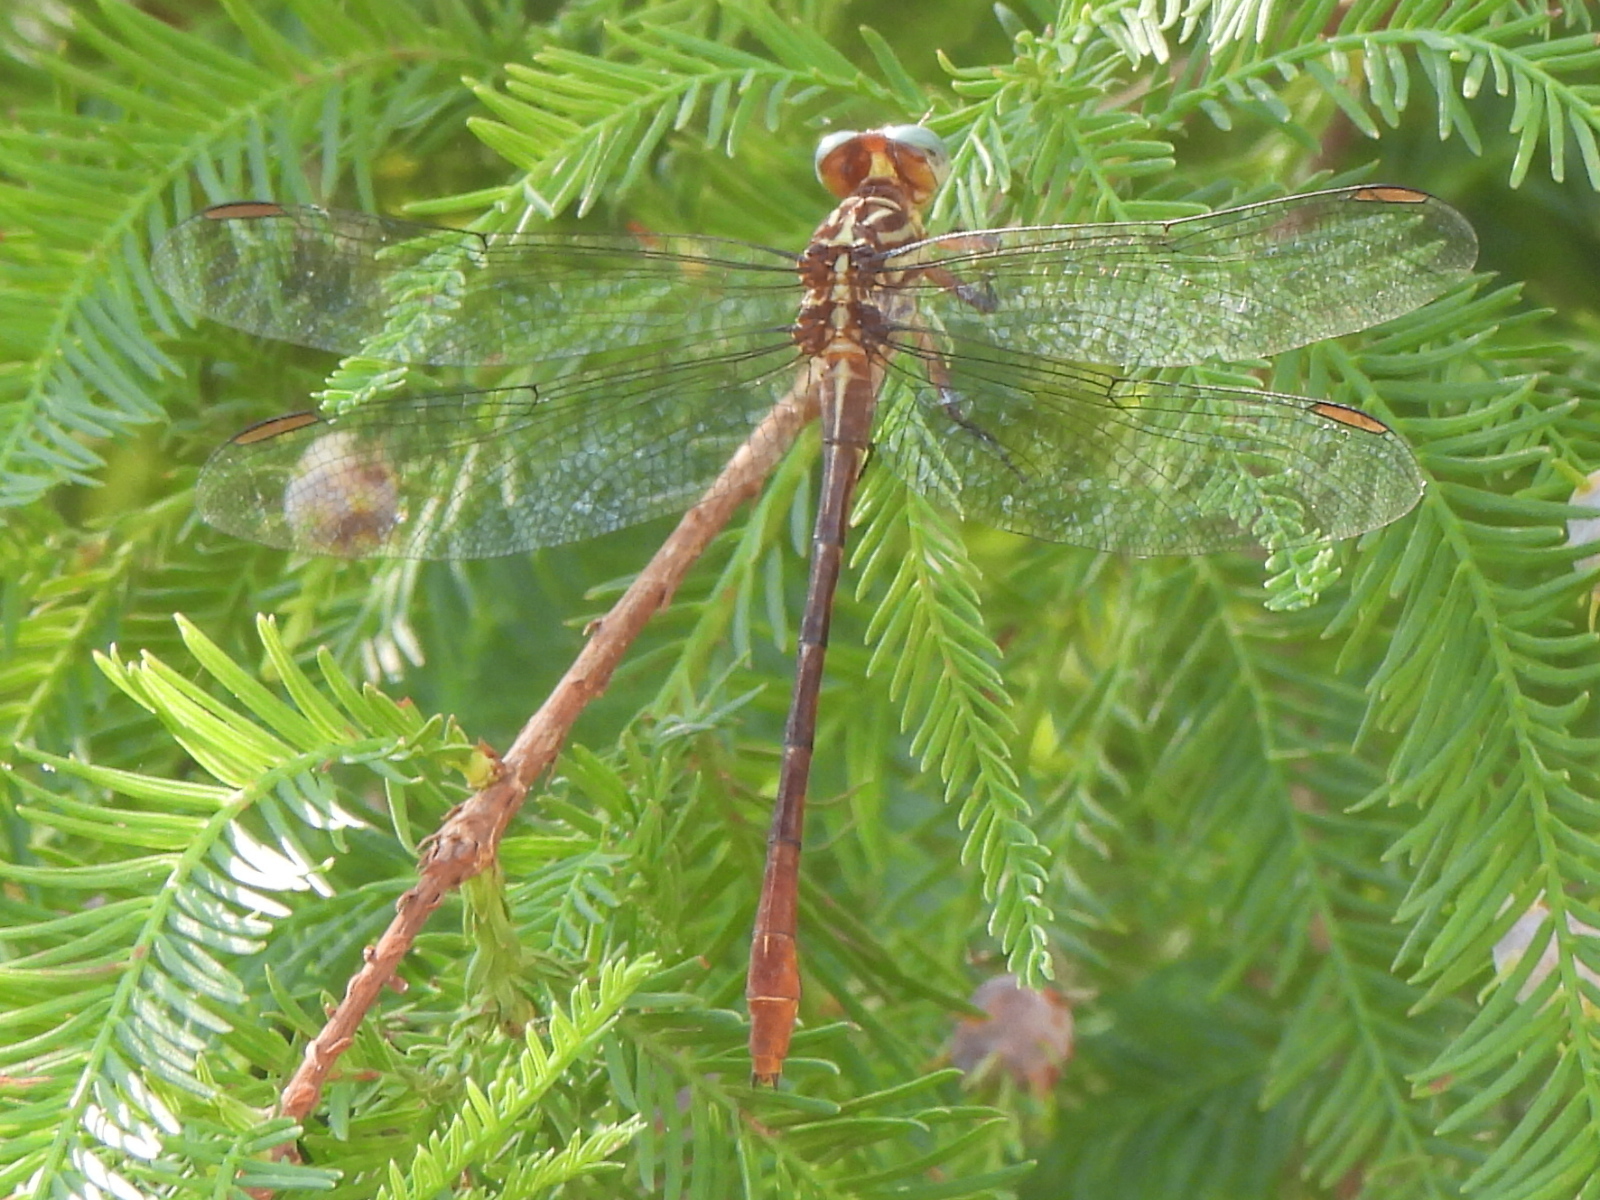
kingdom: Animalia
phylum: Arthropoda
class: Insecta
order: Odonata
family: Gomphidae
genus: Stylurus
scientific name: Stylurus plagiatus
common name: Russet-tipped clubtail
